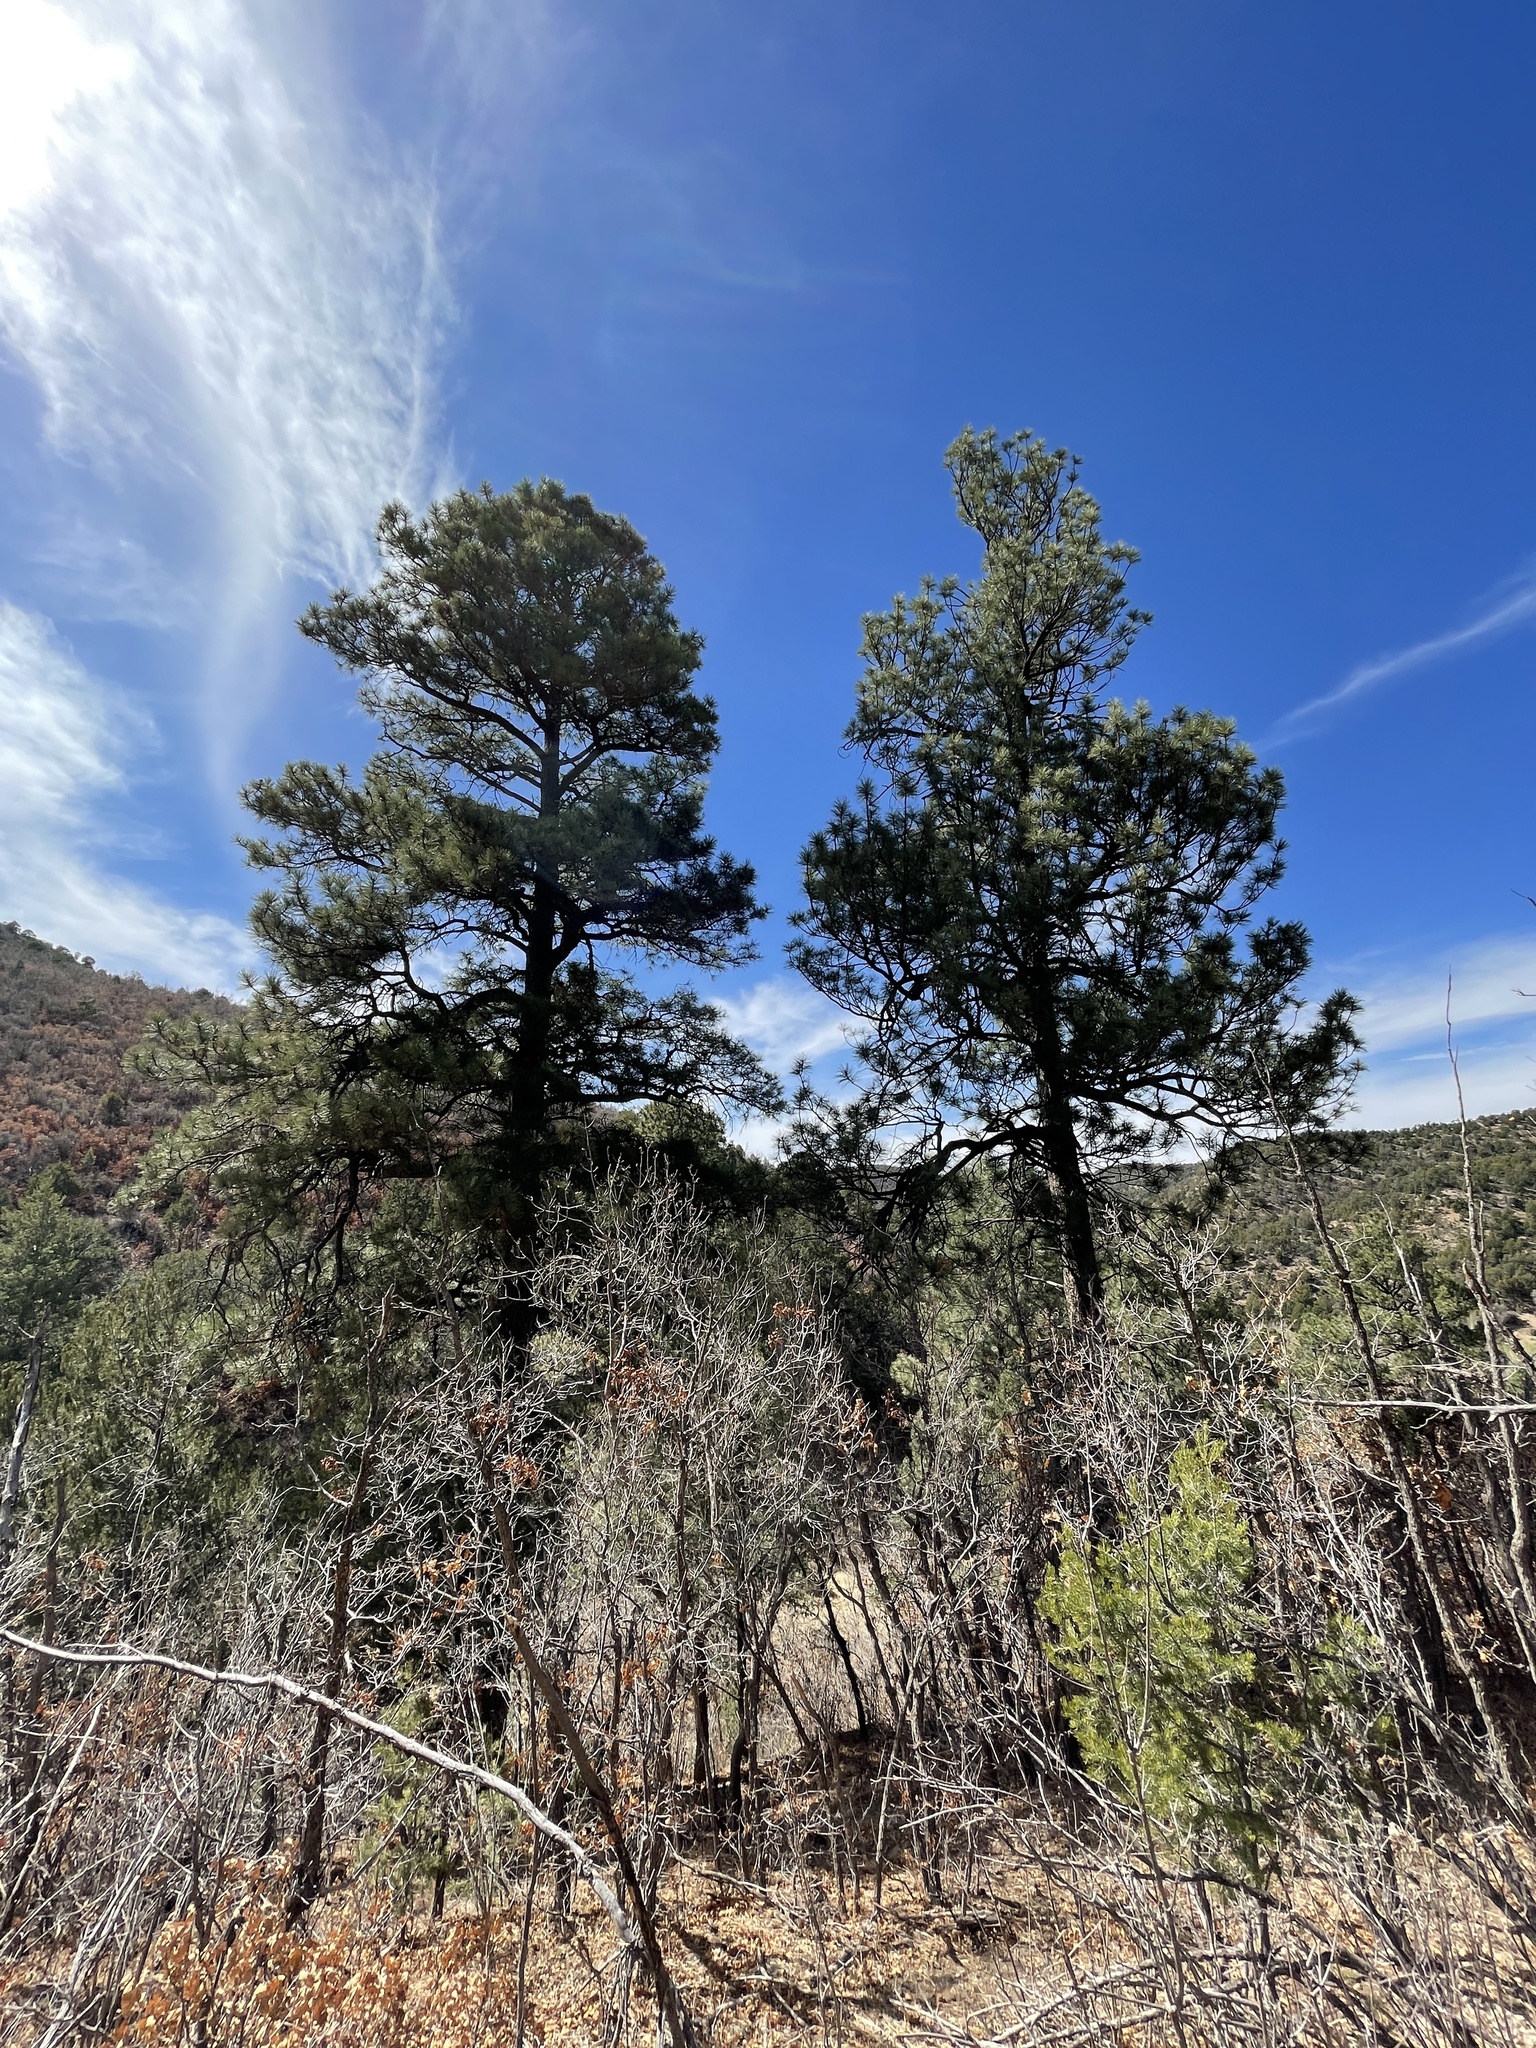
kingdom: Plantae
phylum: Tracheophyta
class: Pinopsida
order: Pinales
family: Pinaceae
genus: Pinus
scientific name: Pinus ponderosa
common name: Western yellow-pine
